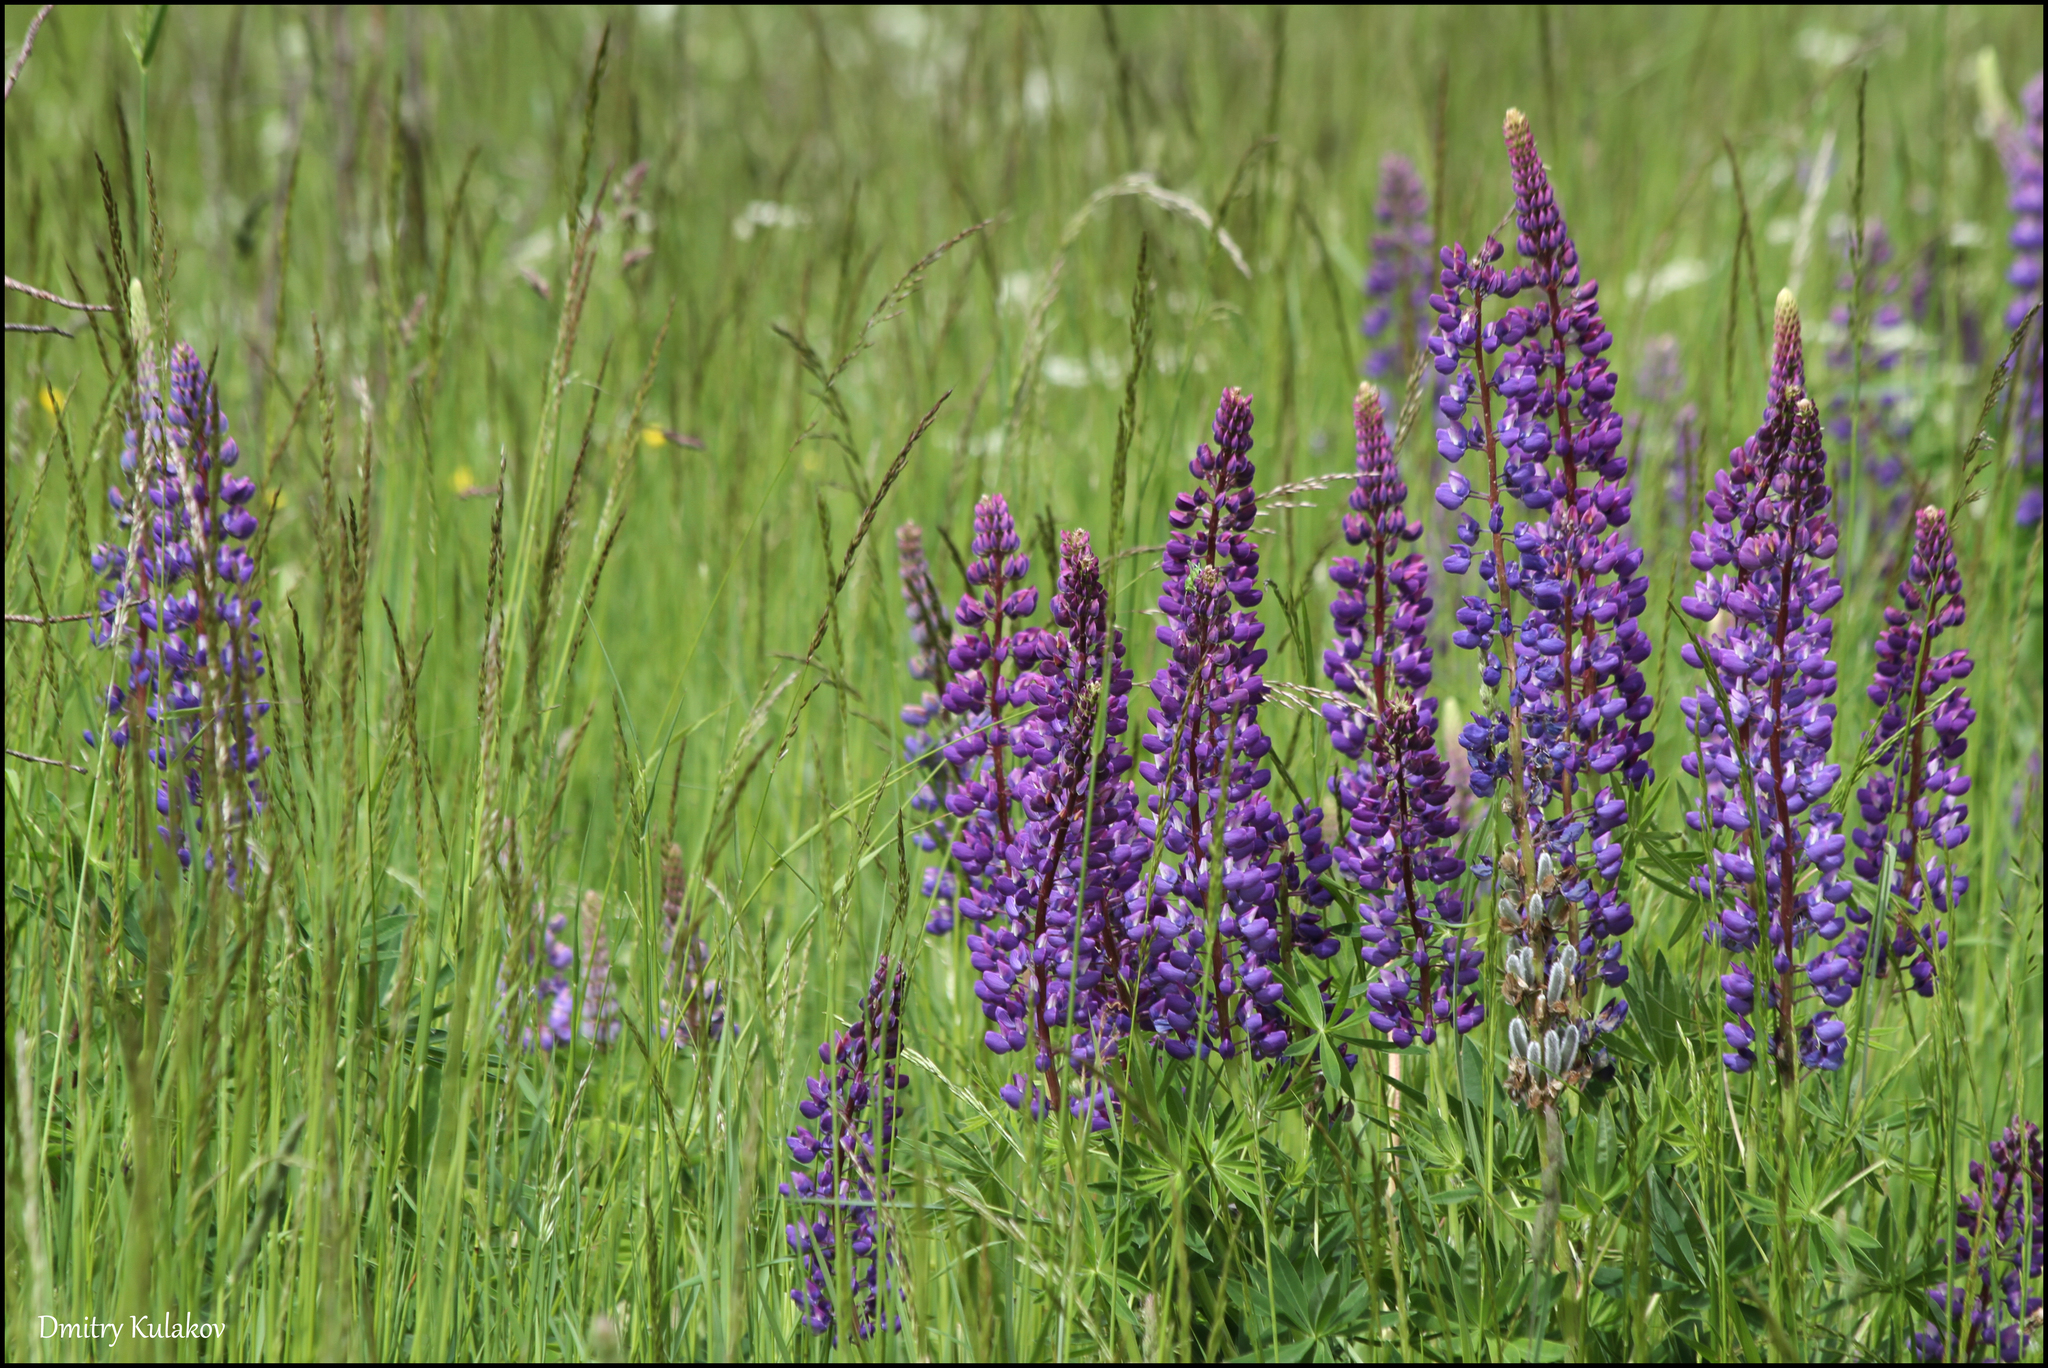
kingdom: Plantae
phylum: Tracheophyta
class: Magnoliopsida
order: Fabales
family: Fabaceae
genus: Lupinus
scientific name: Lupinus polyphyllus
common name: Garden lupin
